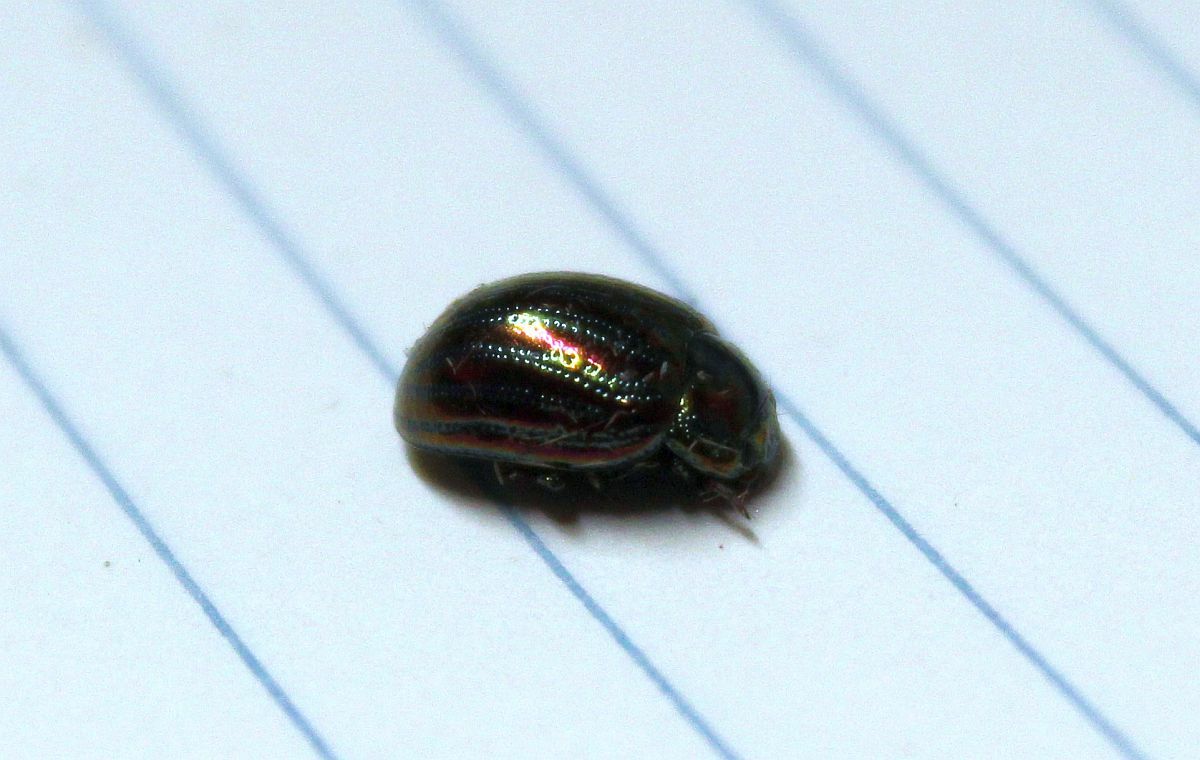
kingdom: Animalia
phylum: Arthropoda
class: Insecta
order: Coleoptera
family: Chrysomelidae
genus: Chrysolina
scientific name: Chrysolina americana
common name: Rosemary beetle
